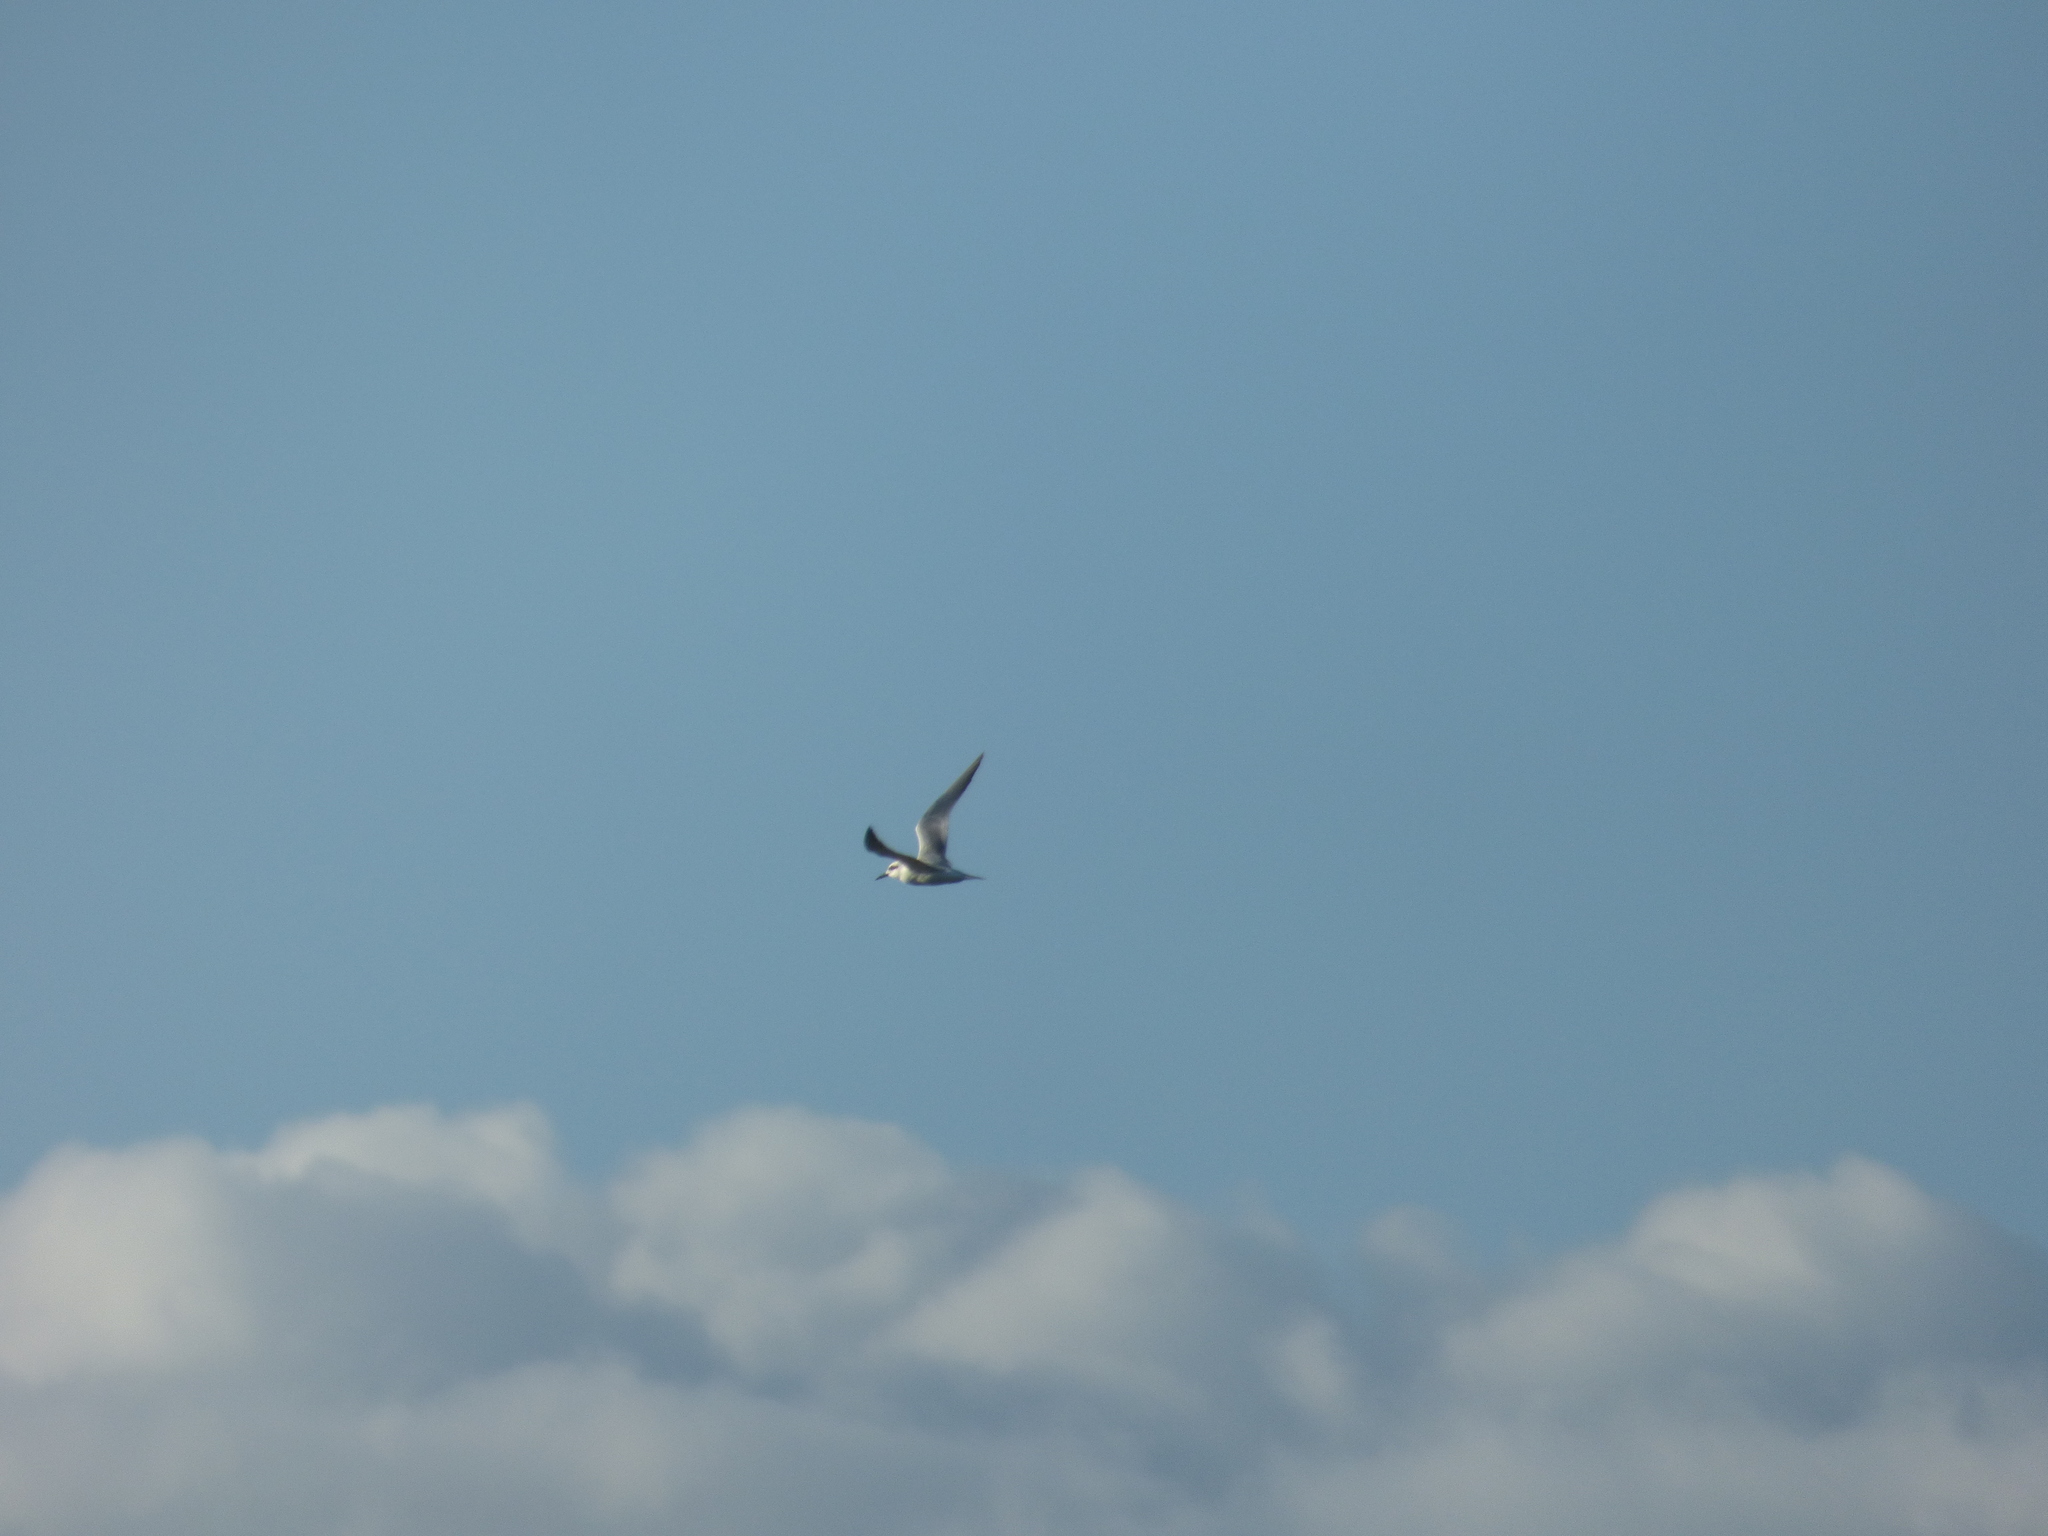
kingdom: Animalia
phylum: Chordata
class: Aves
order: Charadriiformes
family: Laridae
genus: Sterna
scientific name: Sterna trudeaui
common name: Snowy-crowned tern
